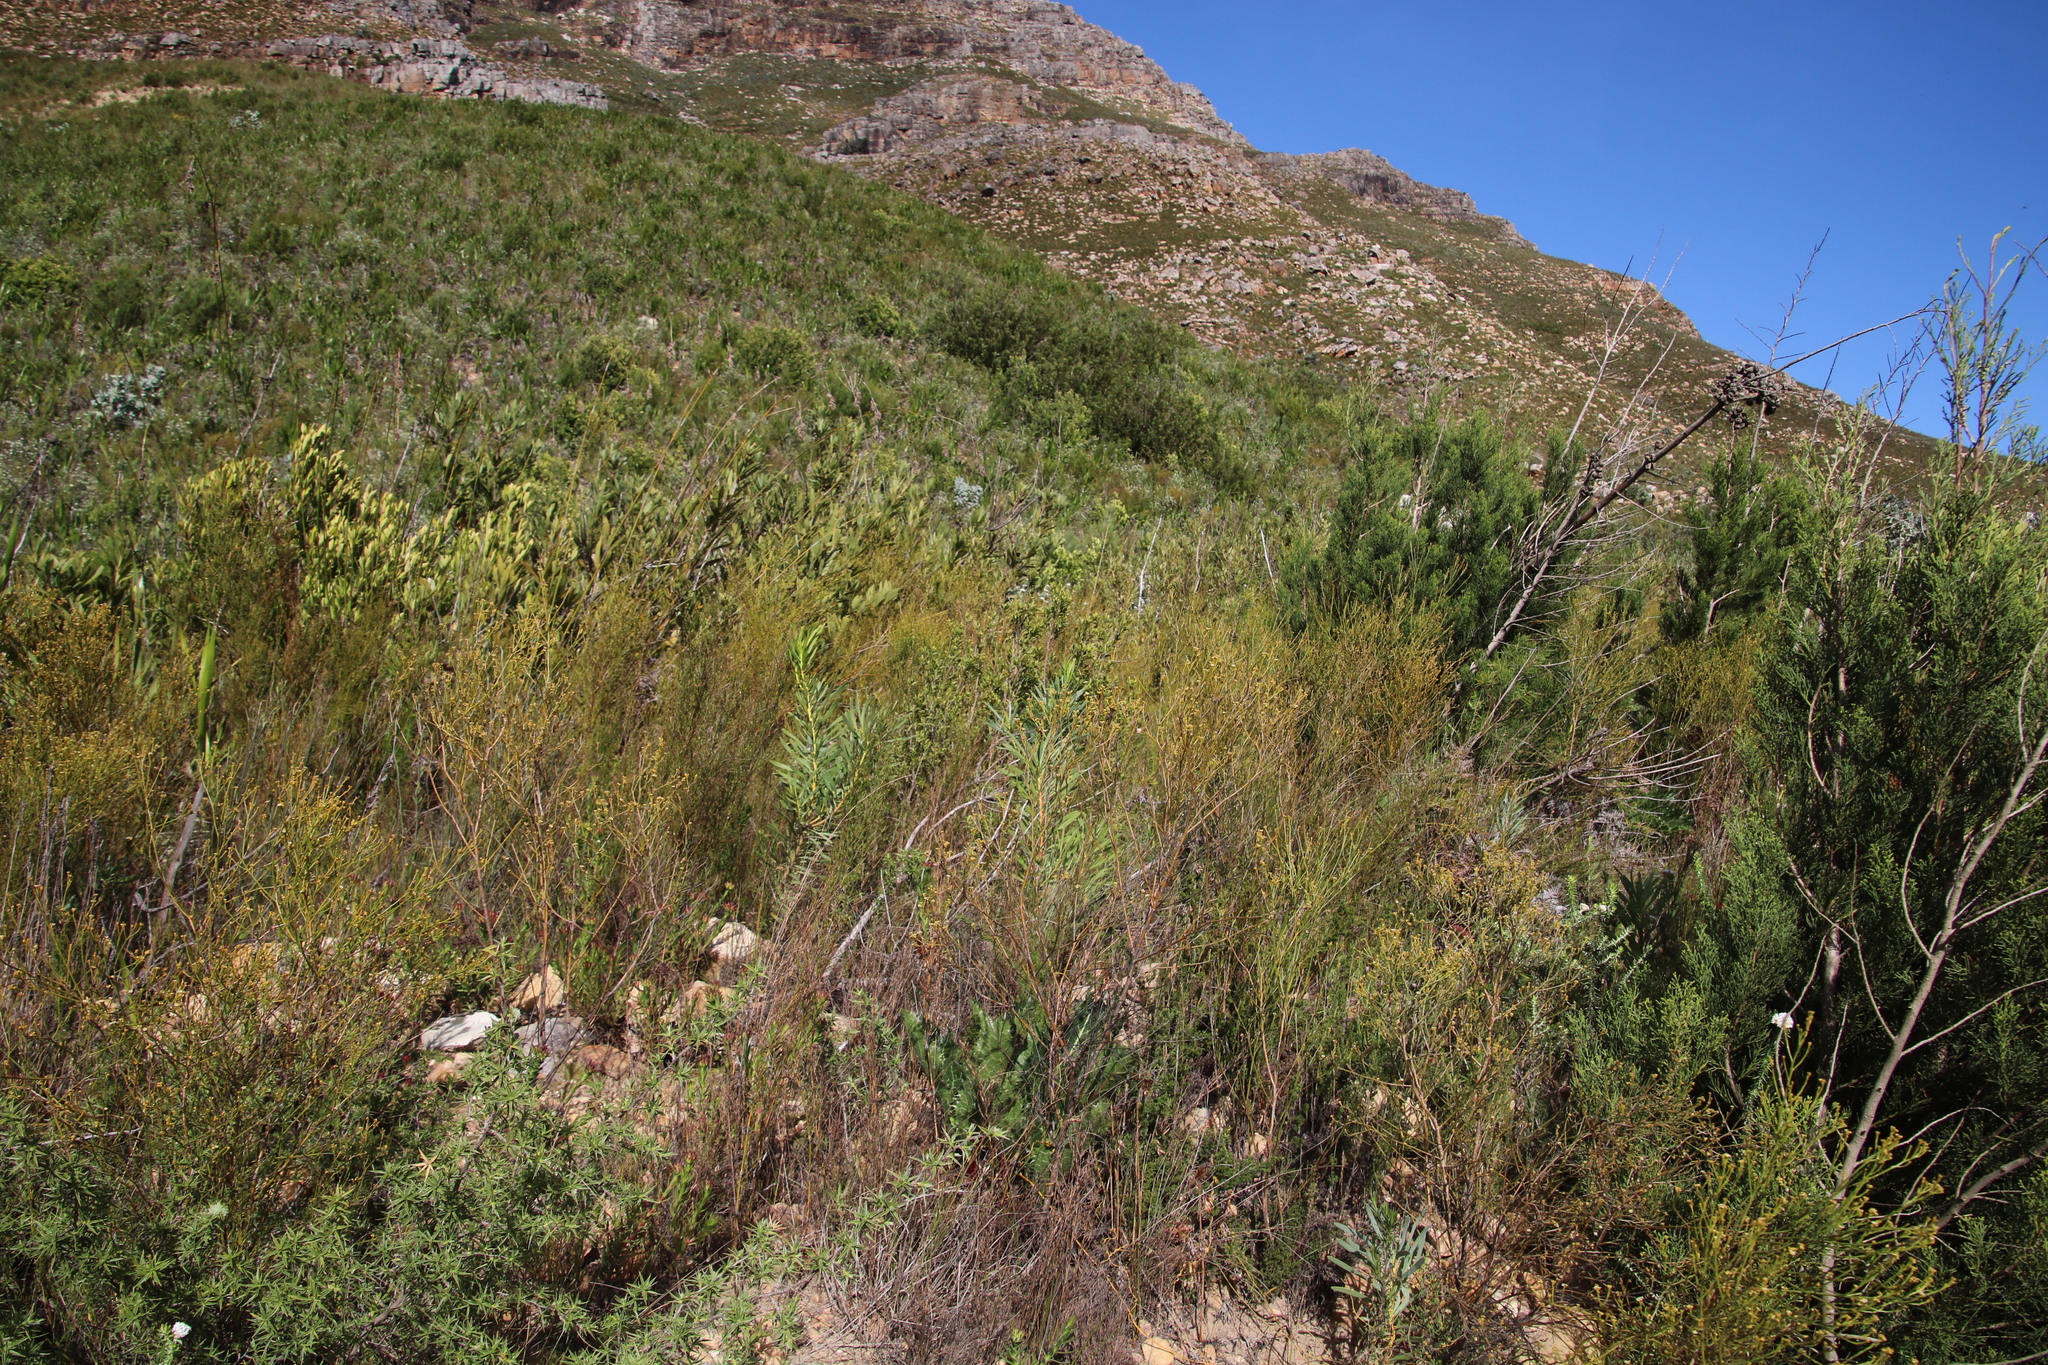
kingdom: Plantae
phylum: Tracheophyta
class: Magnoliopsida
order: Proteales
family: Proteaceae
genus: Protea
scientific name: Protea repens
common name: Sugarbush
